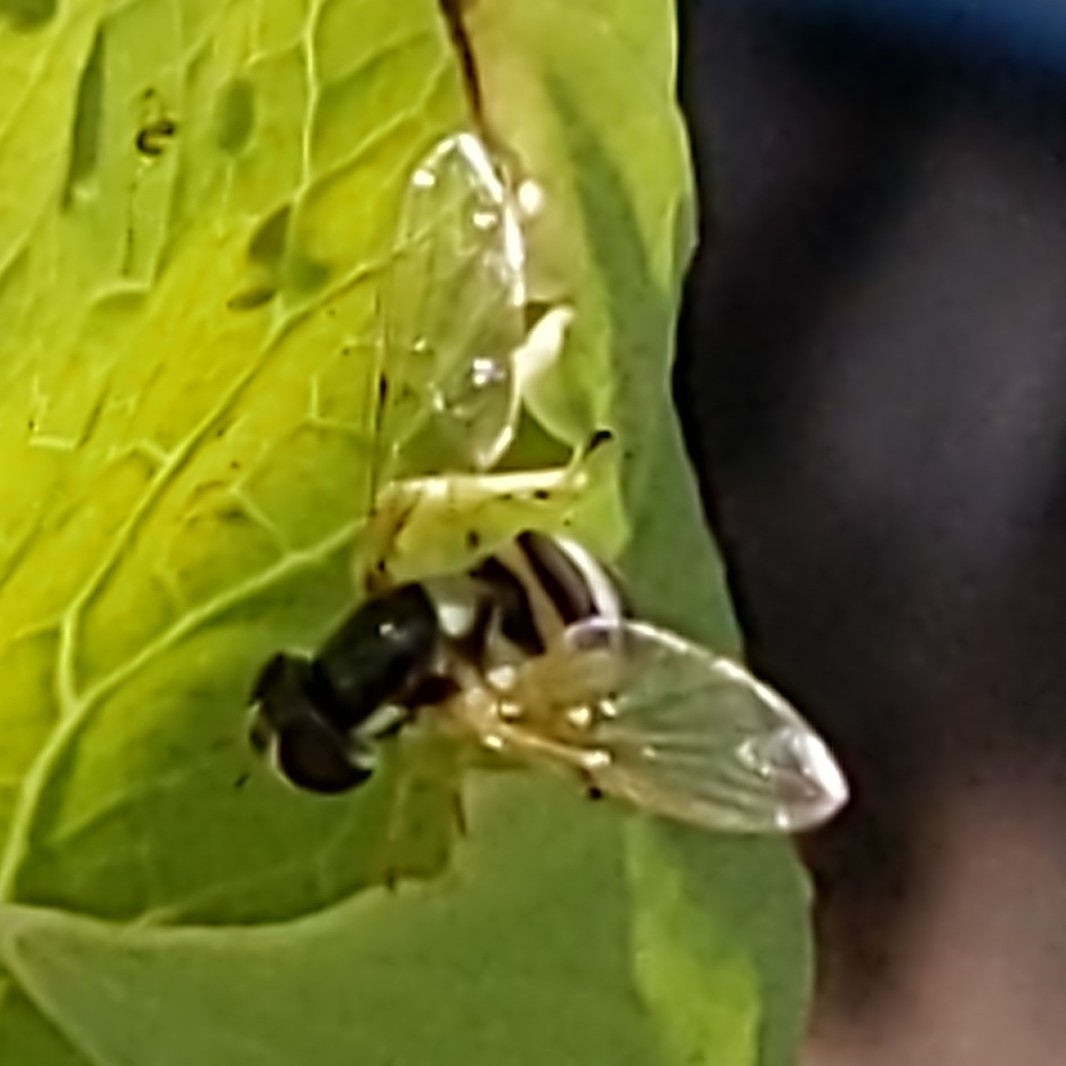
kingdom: Animalia
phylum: Arthropoda
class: Insecta
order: Diptera
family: Syrphidae
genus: Allograpta
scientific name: Allograpta exotica
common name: Syrphid fly
